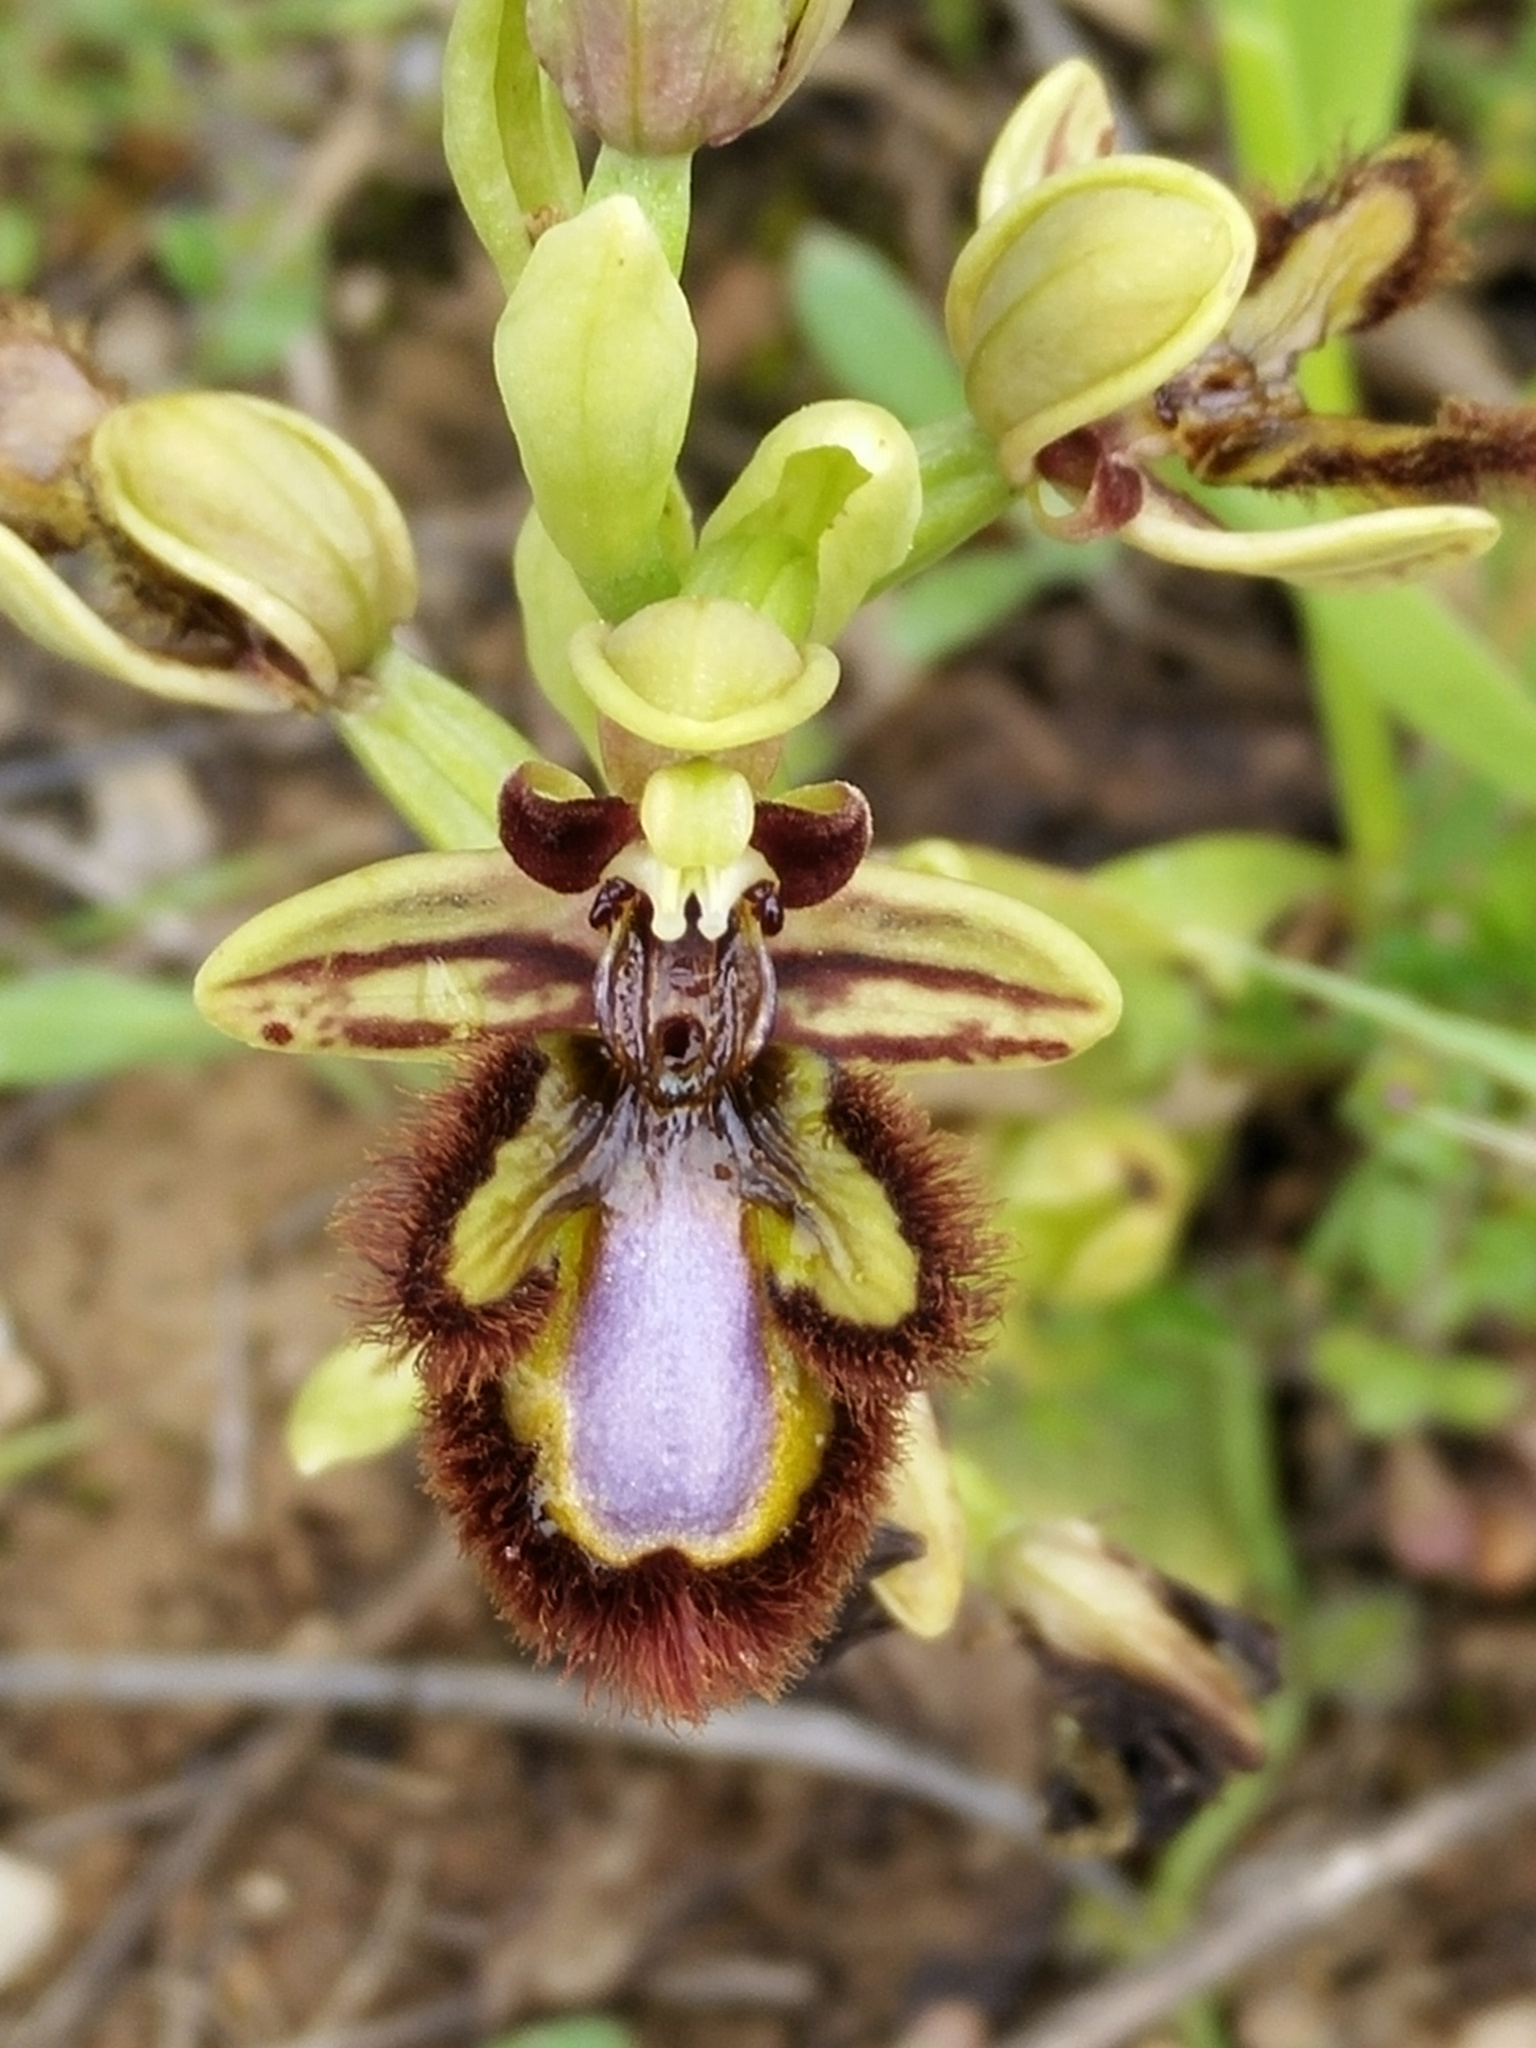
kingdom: Plantae
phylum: Tracheophyta
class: Liliopsida
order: Asparagales
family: Orchidaceae
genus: Ophrys
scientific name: Ophrys speculum
